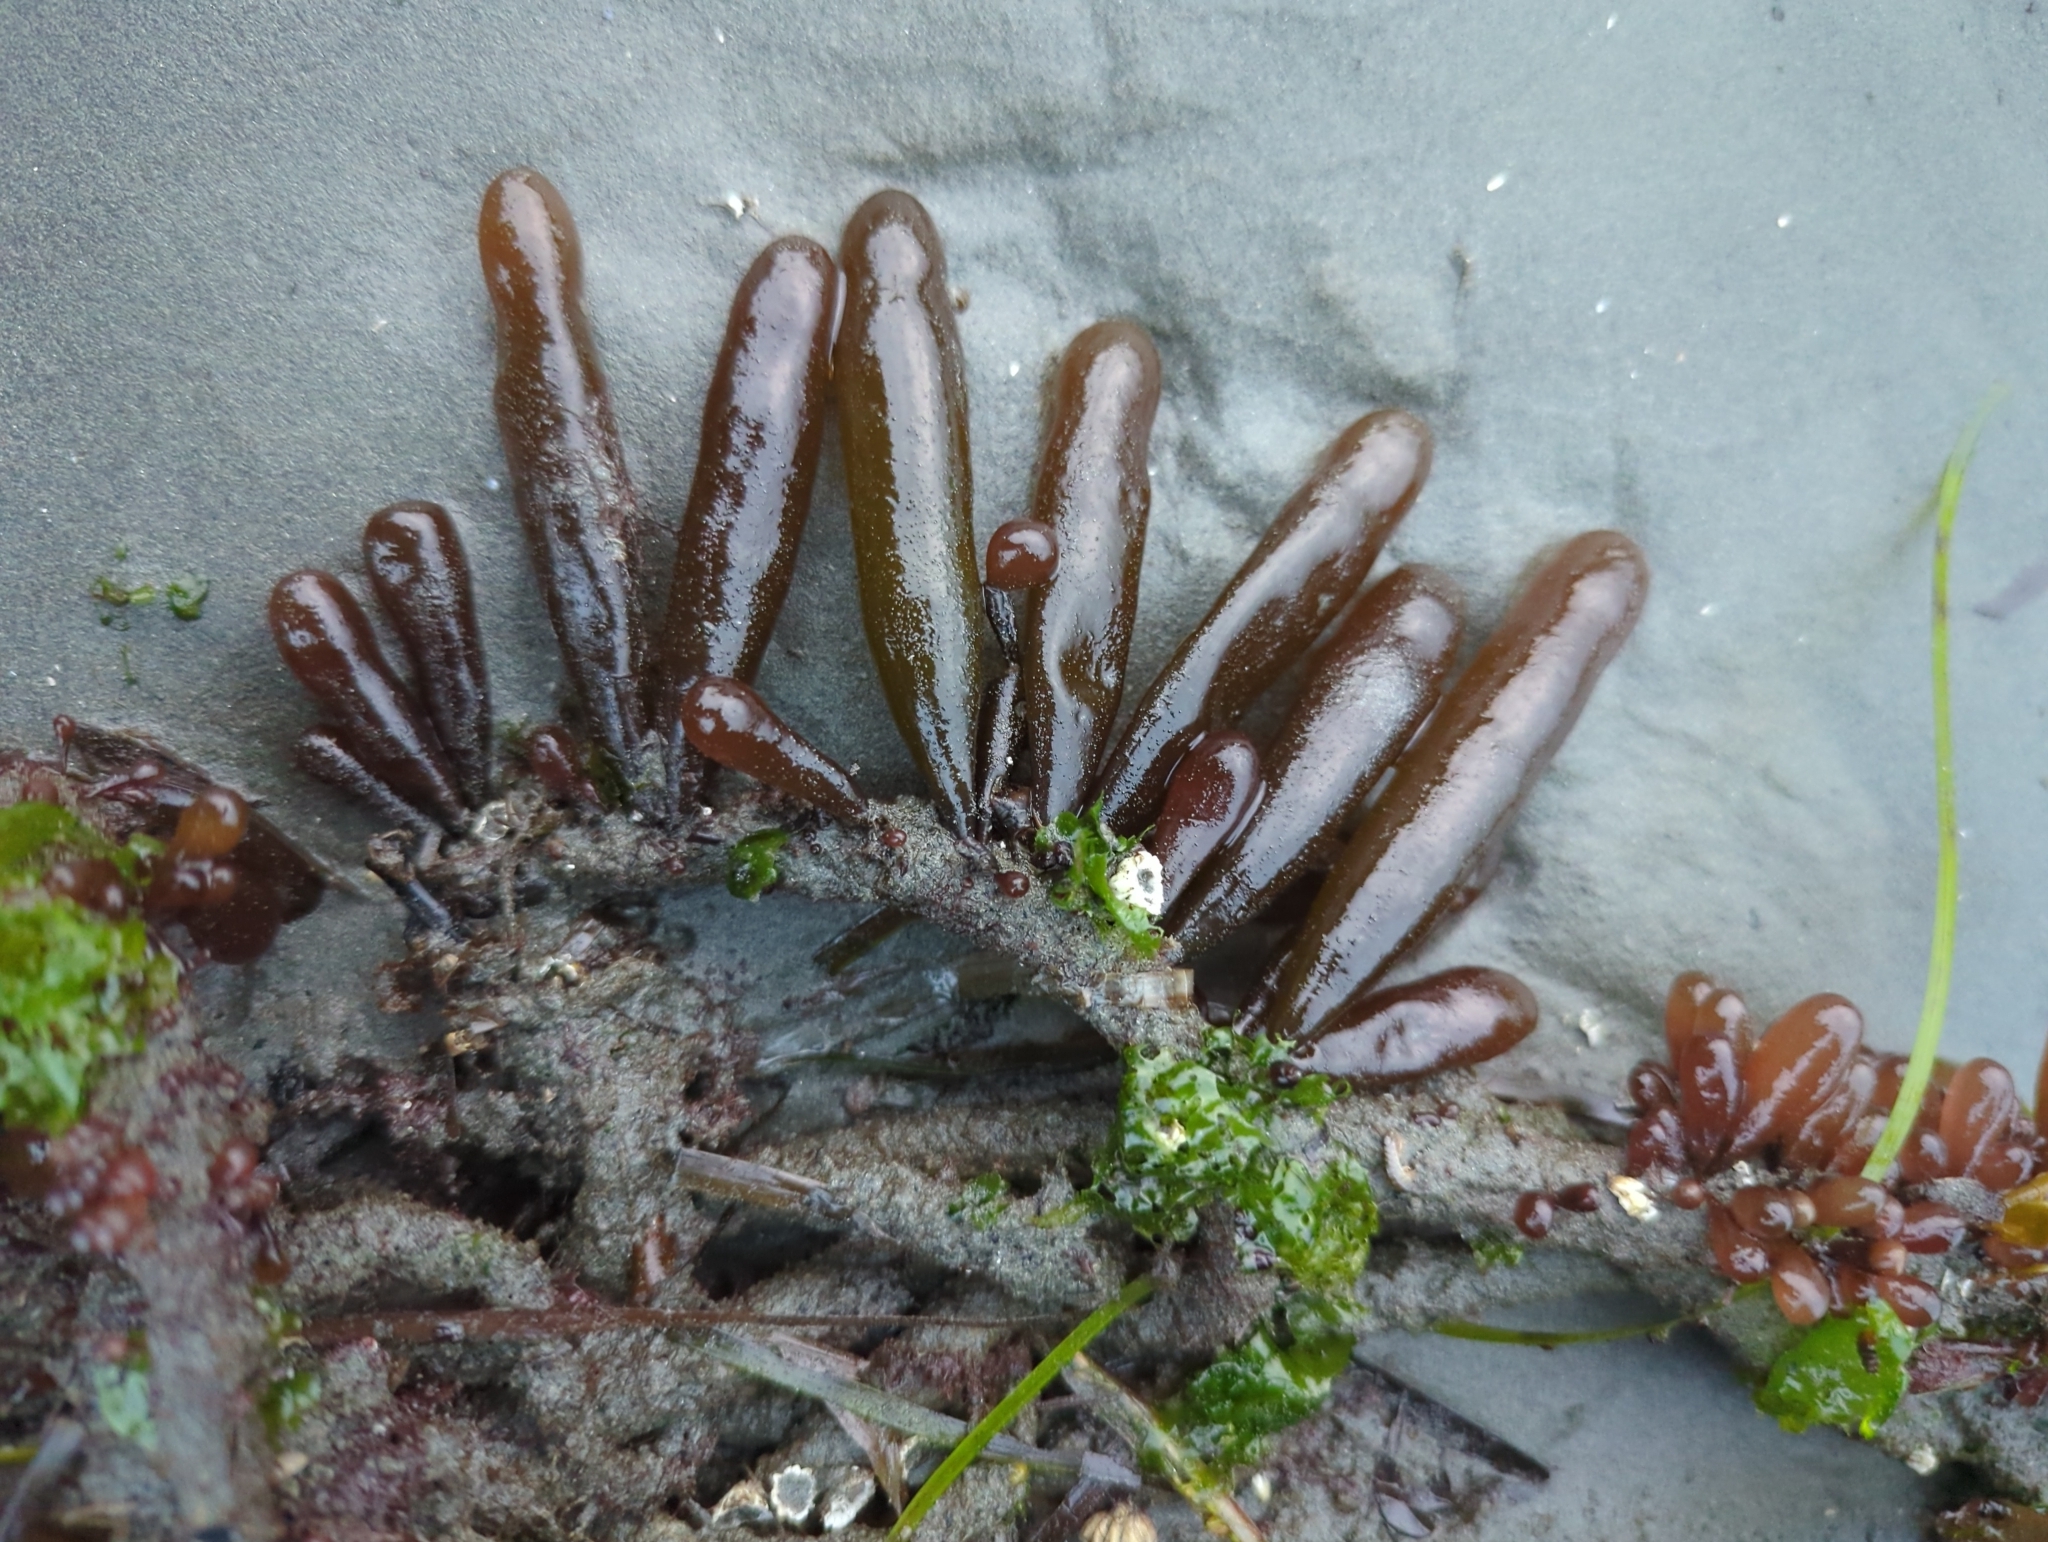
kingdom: Plantae
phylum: Rhodophyta
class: Florideophyceae
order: Palmariales
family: Palmariaceae
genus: Halosaccion
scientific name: Halosaccion glandiforme
